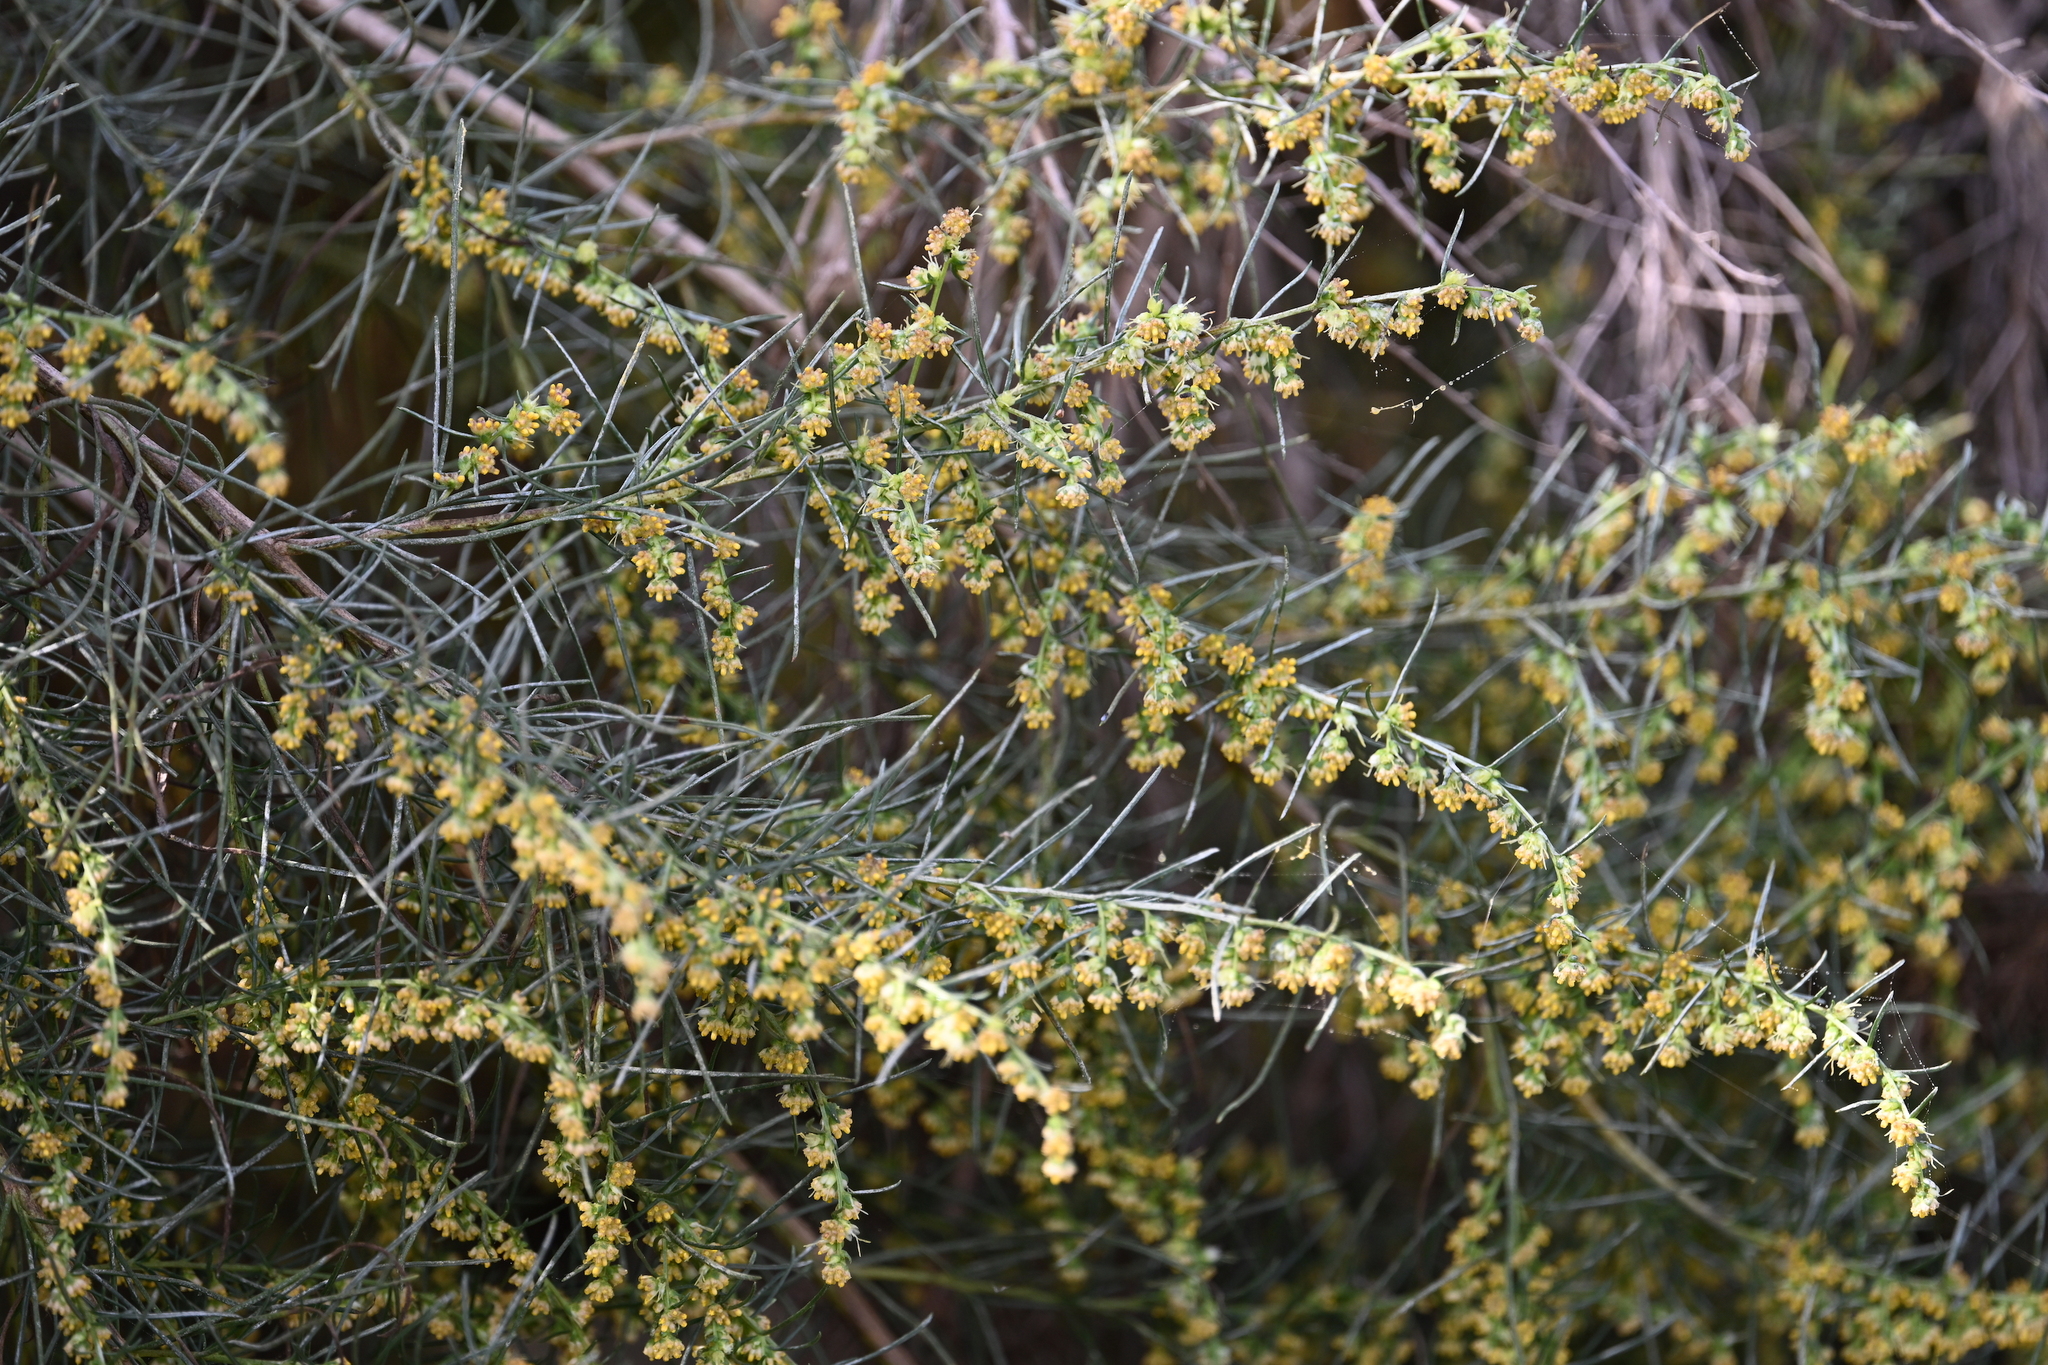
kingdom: Plantae
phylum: Tracheophyta
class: Magnoliopsida
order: Asterales
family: Asteraceae
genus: Artemisia
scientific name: Artemisia californica
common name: California sagebrush
